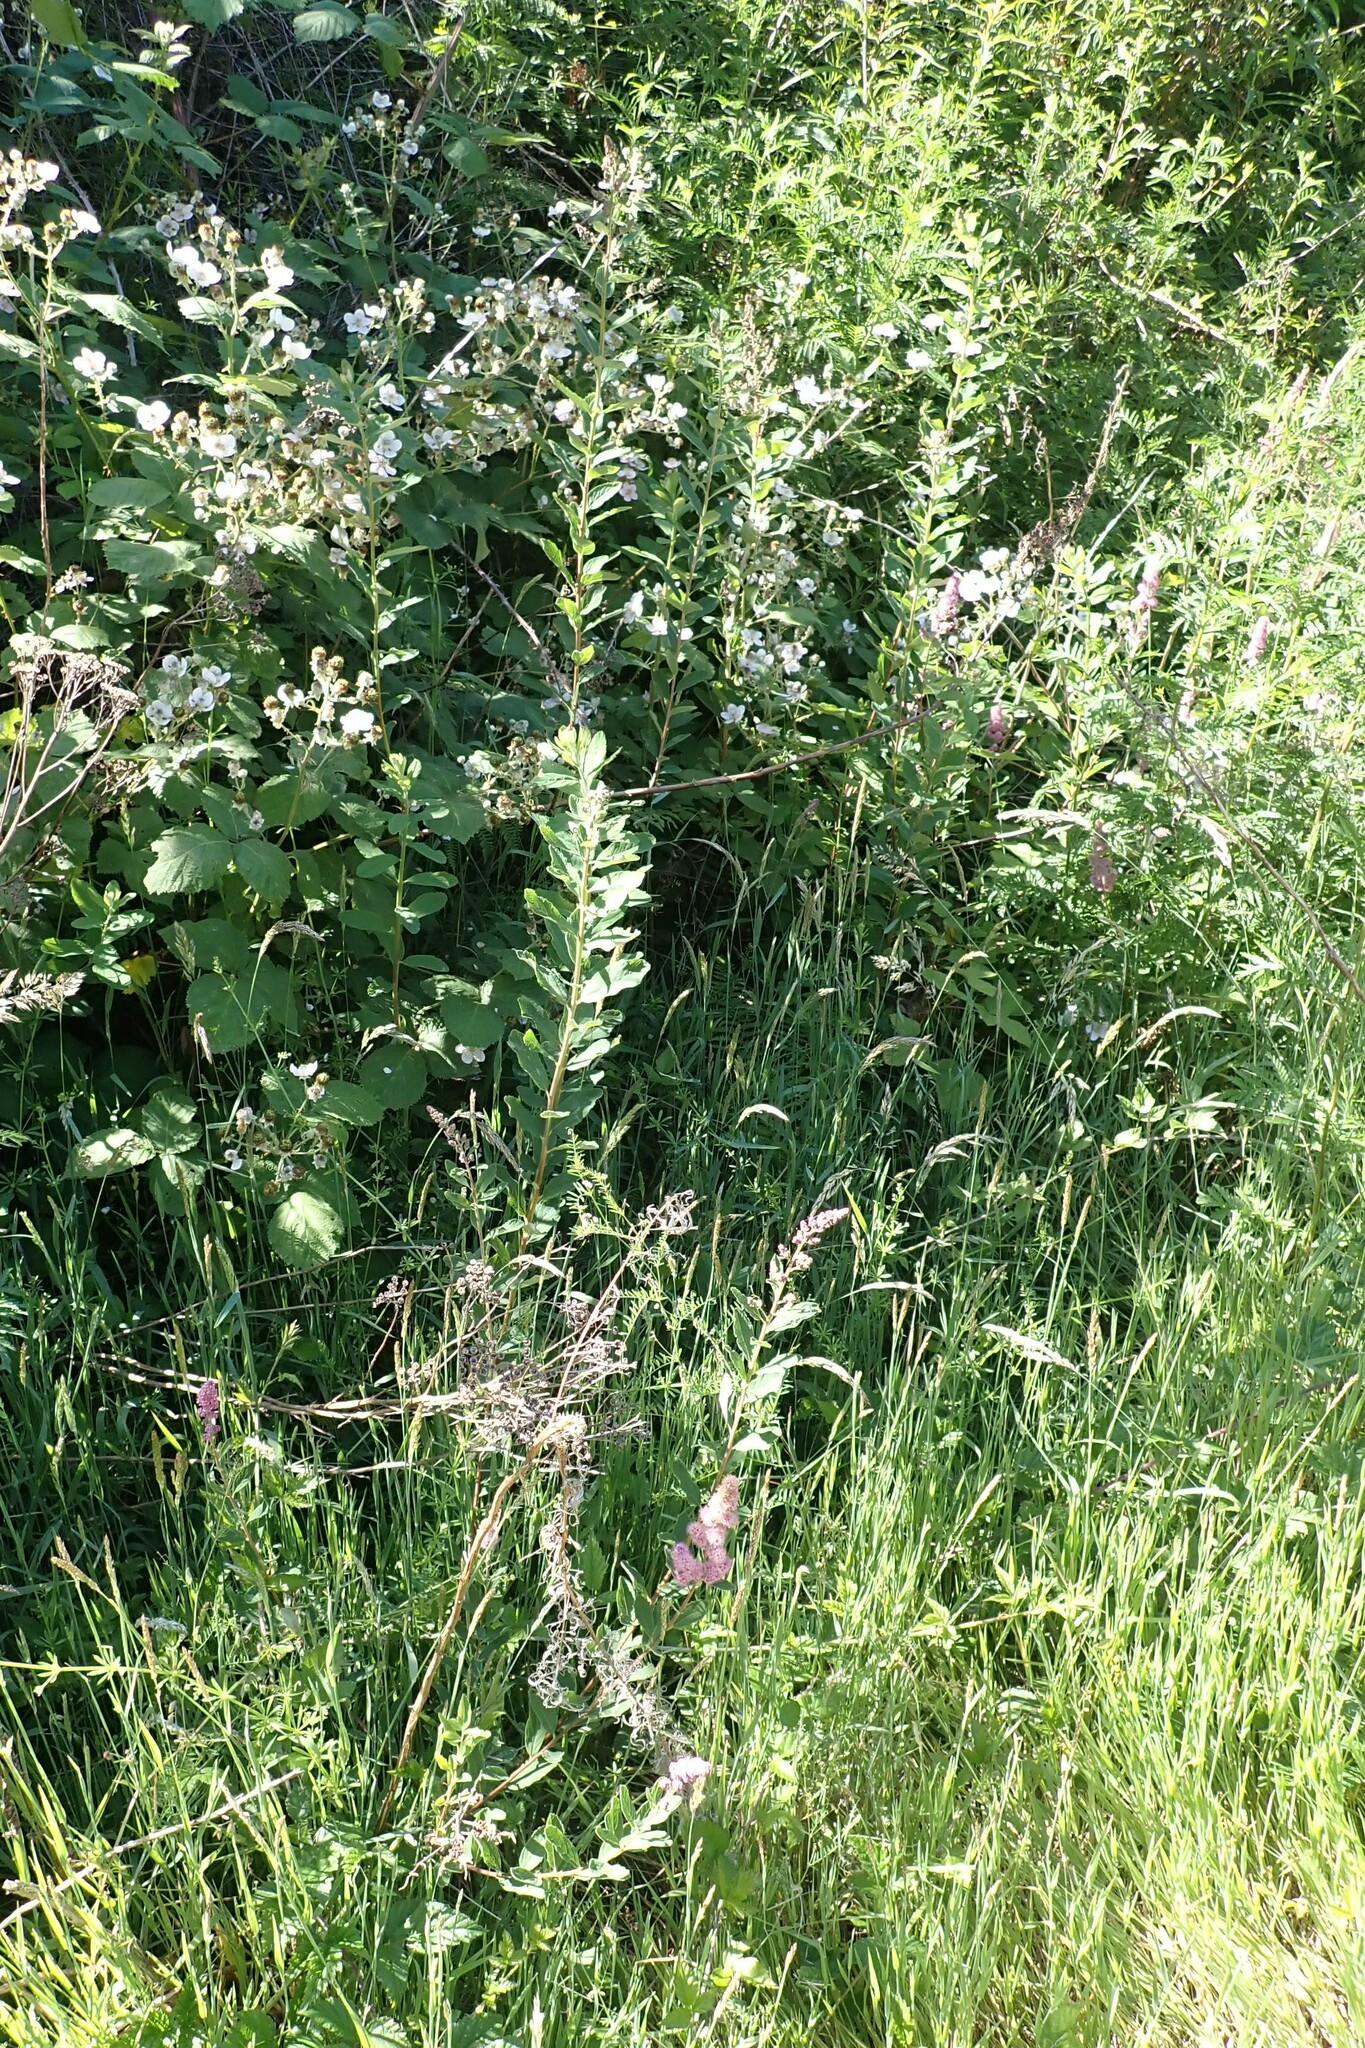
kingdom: Plantae
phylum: Tracheophyta
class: Magnoliopsida
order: Rosales
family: Rosaceae
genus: Spiraea
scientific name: Spiraea douglasii
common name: Steeplebush
